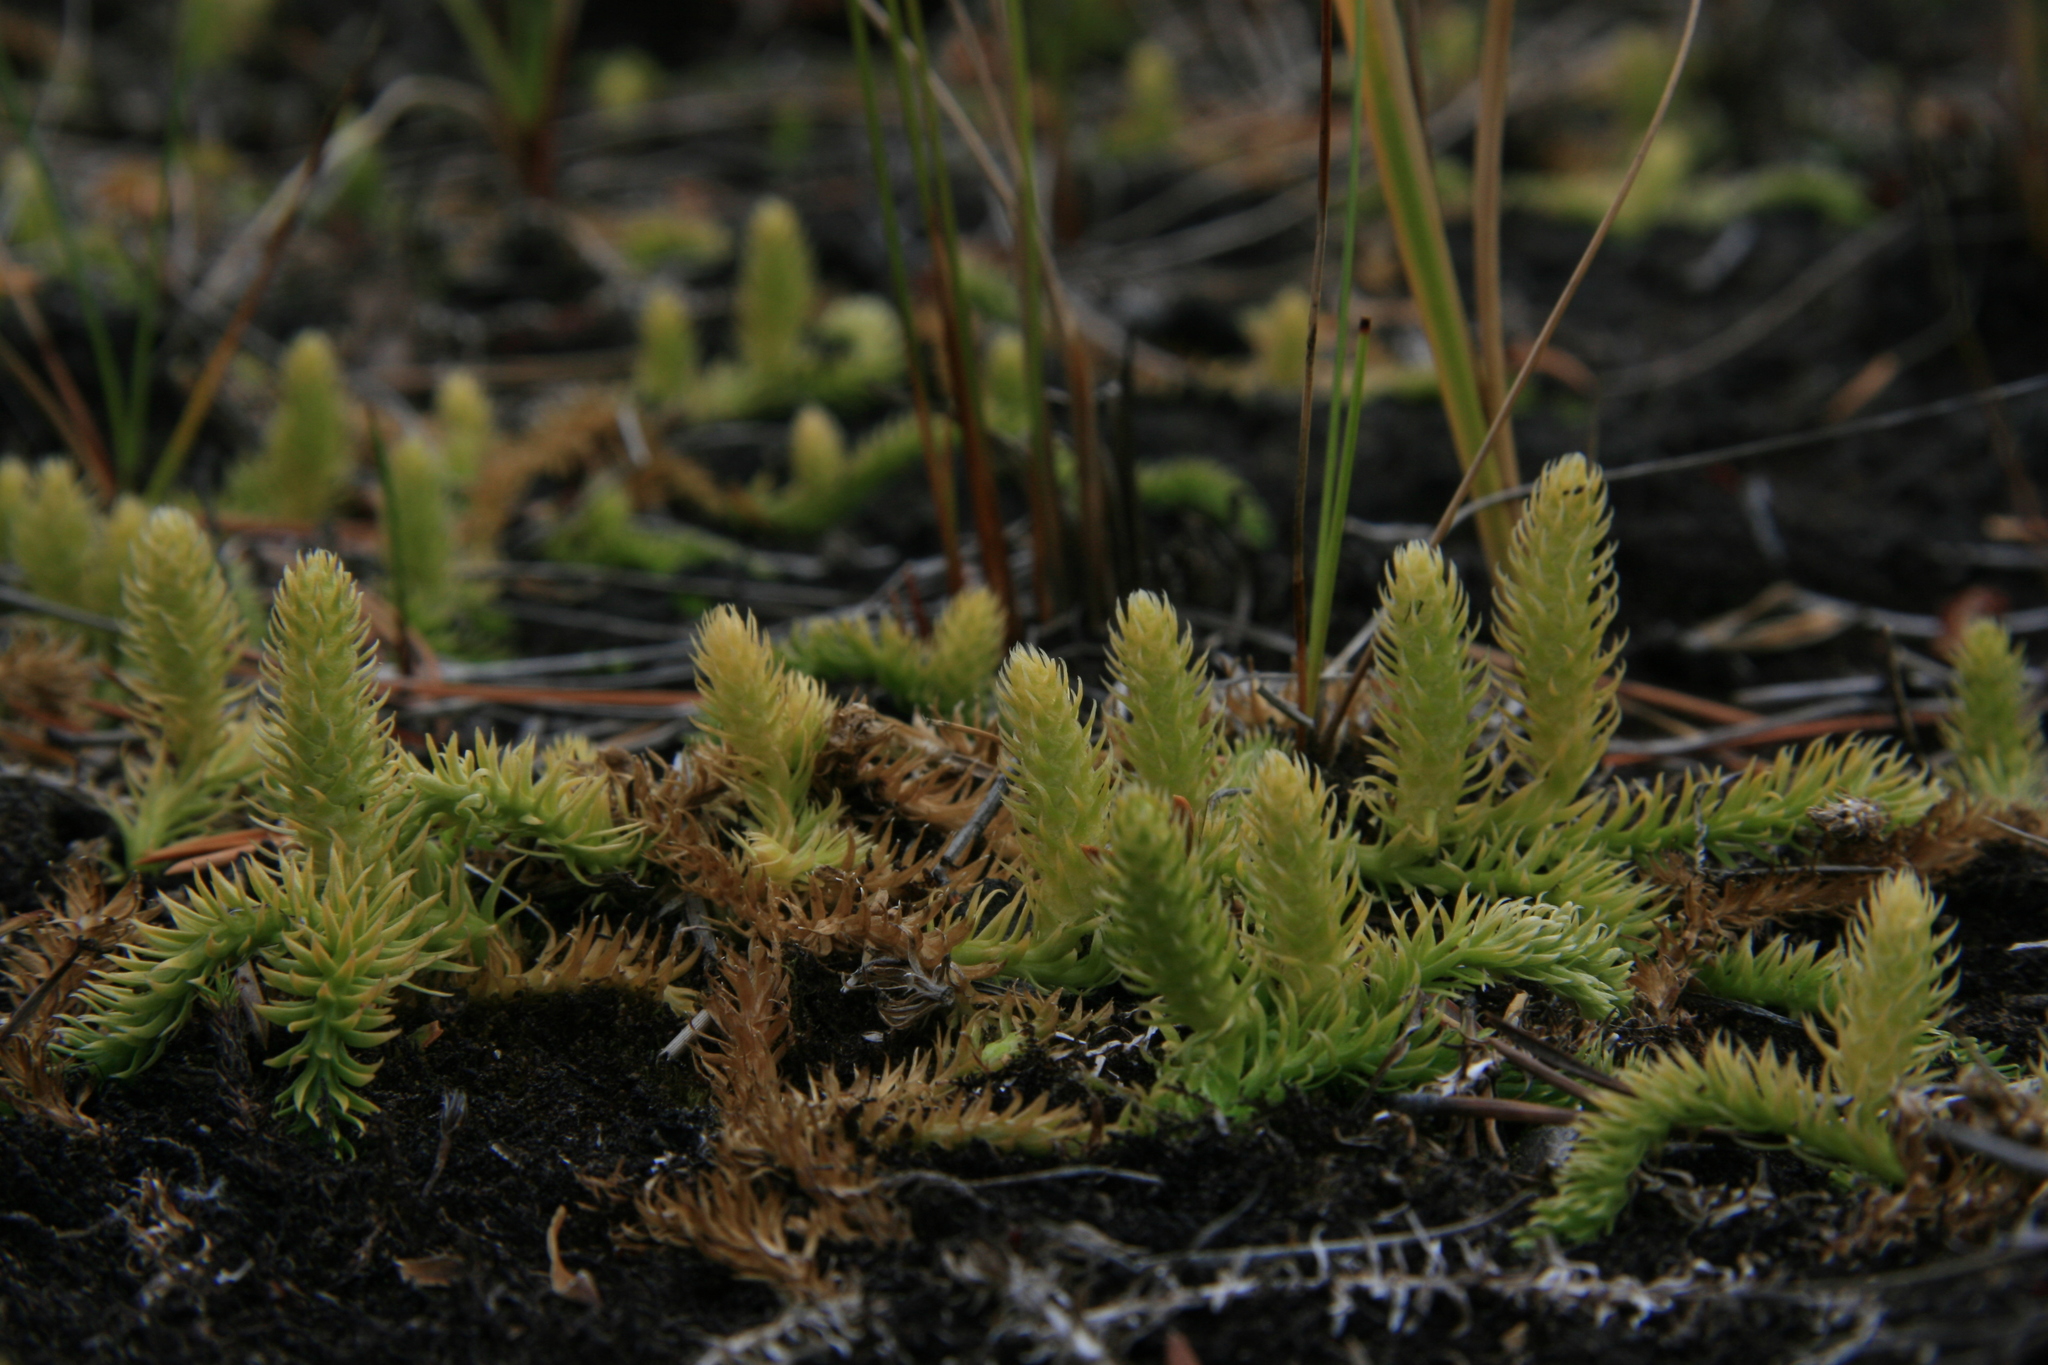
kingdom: Plantae
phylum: Tracheophyta
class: Lycopodiopsida
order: Lycopodiales
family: Lycopodiaceae
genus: Lycopodiella
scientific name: Lycopodiella inundata
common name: Marsh clubmoss
